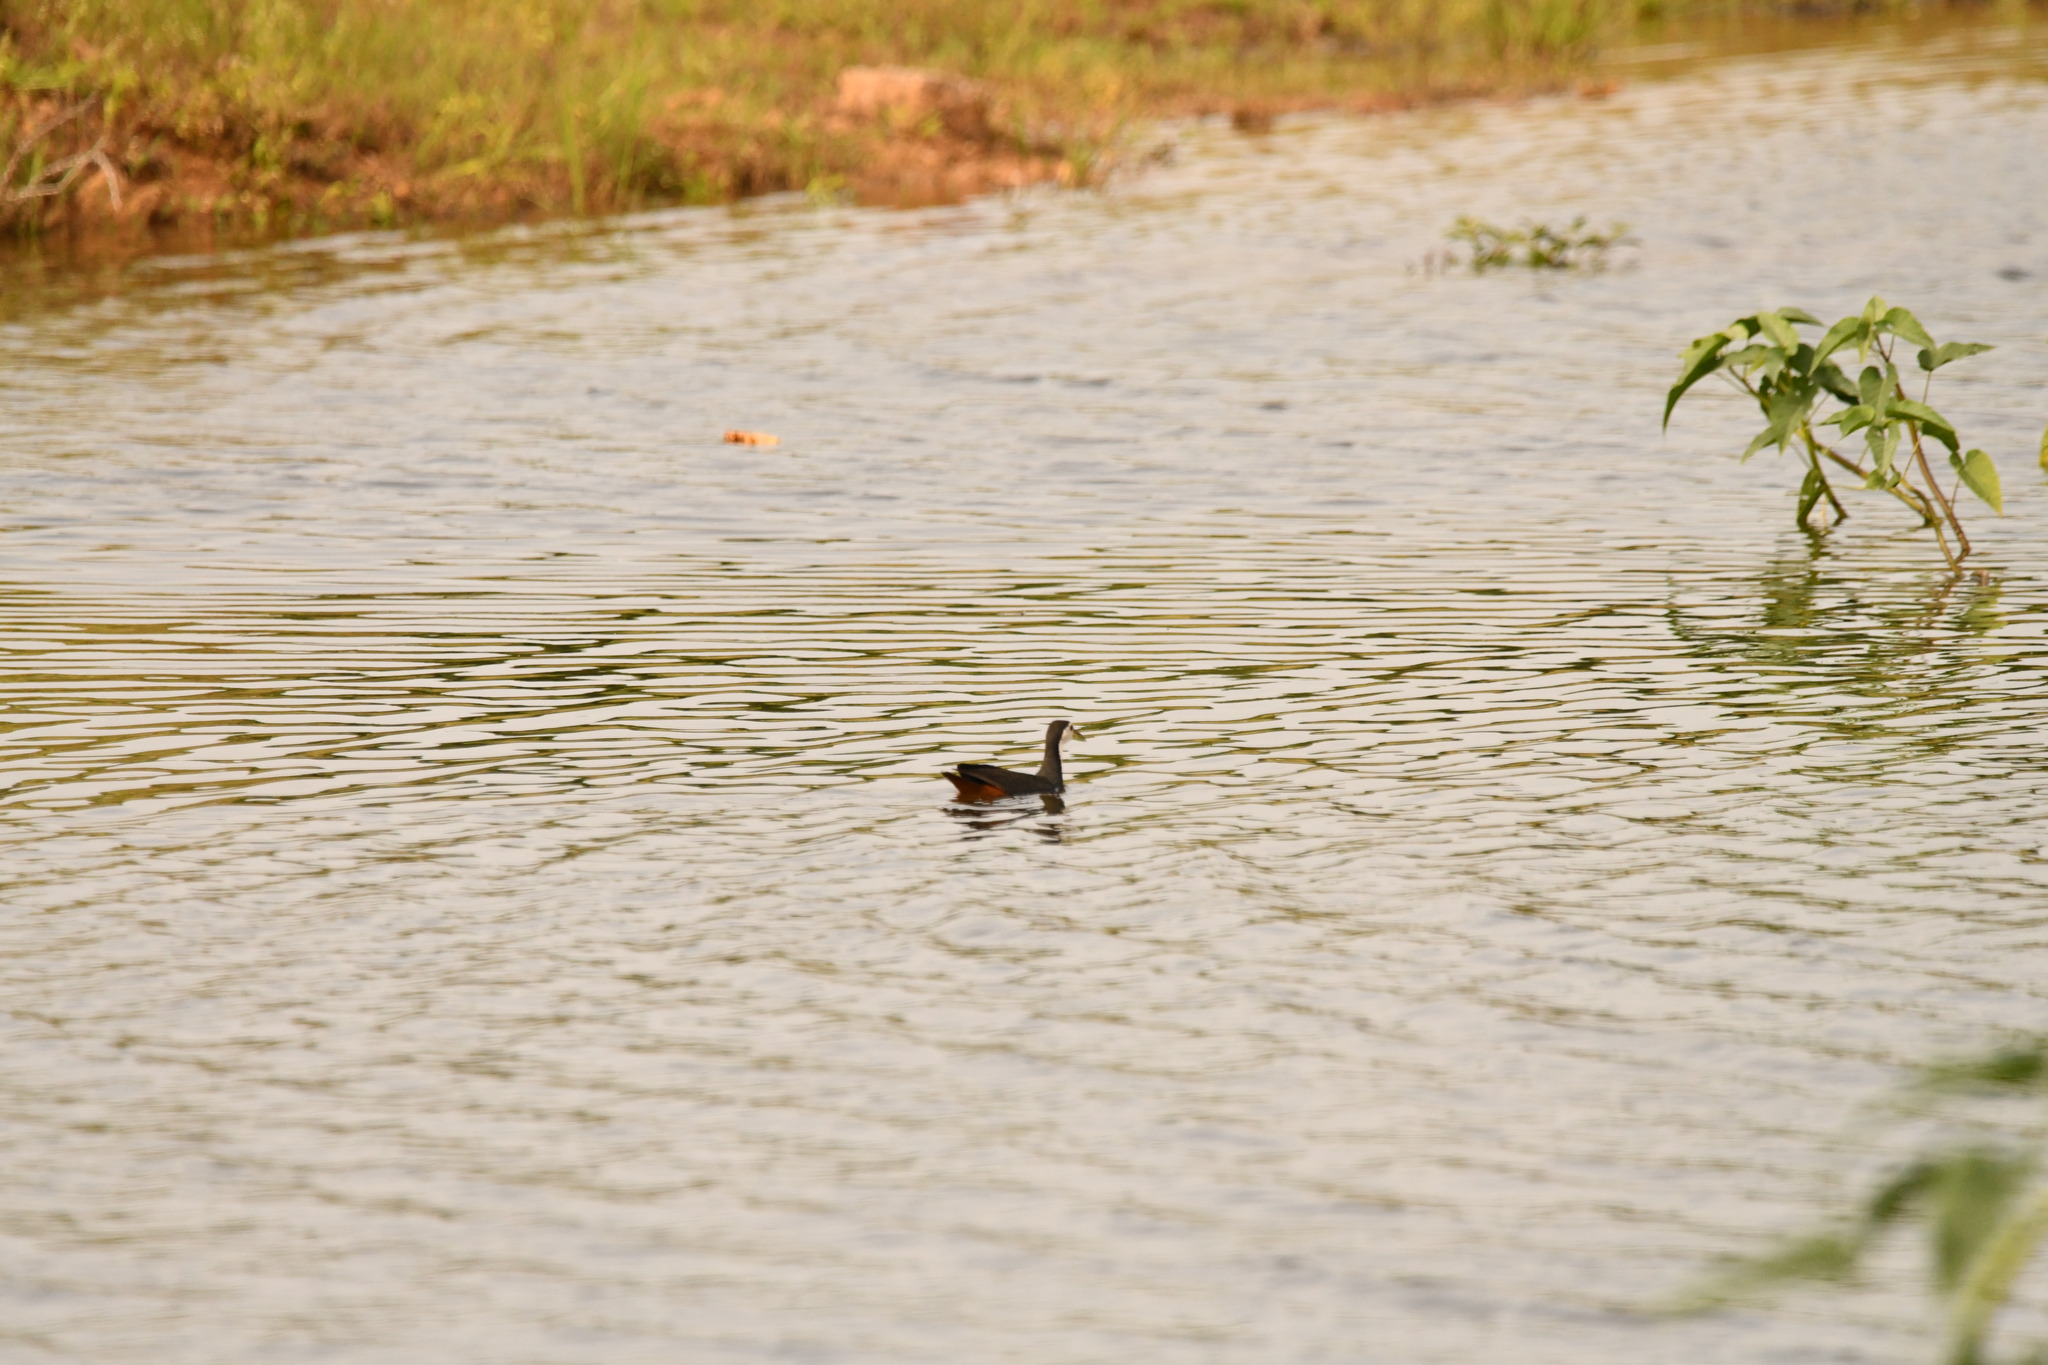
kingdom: Animalia
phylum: Chordata
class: Aves
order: Gruiformes
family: Rallidae
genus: Amaurornis
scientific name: Amaurornis phoenicurus
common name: White-breasted waterhen
